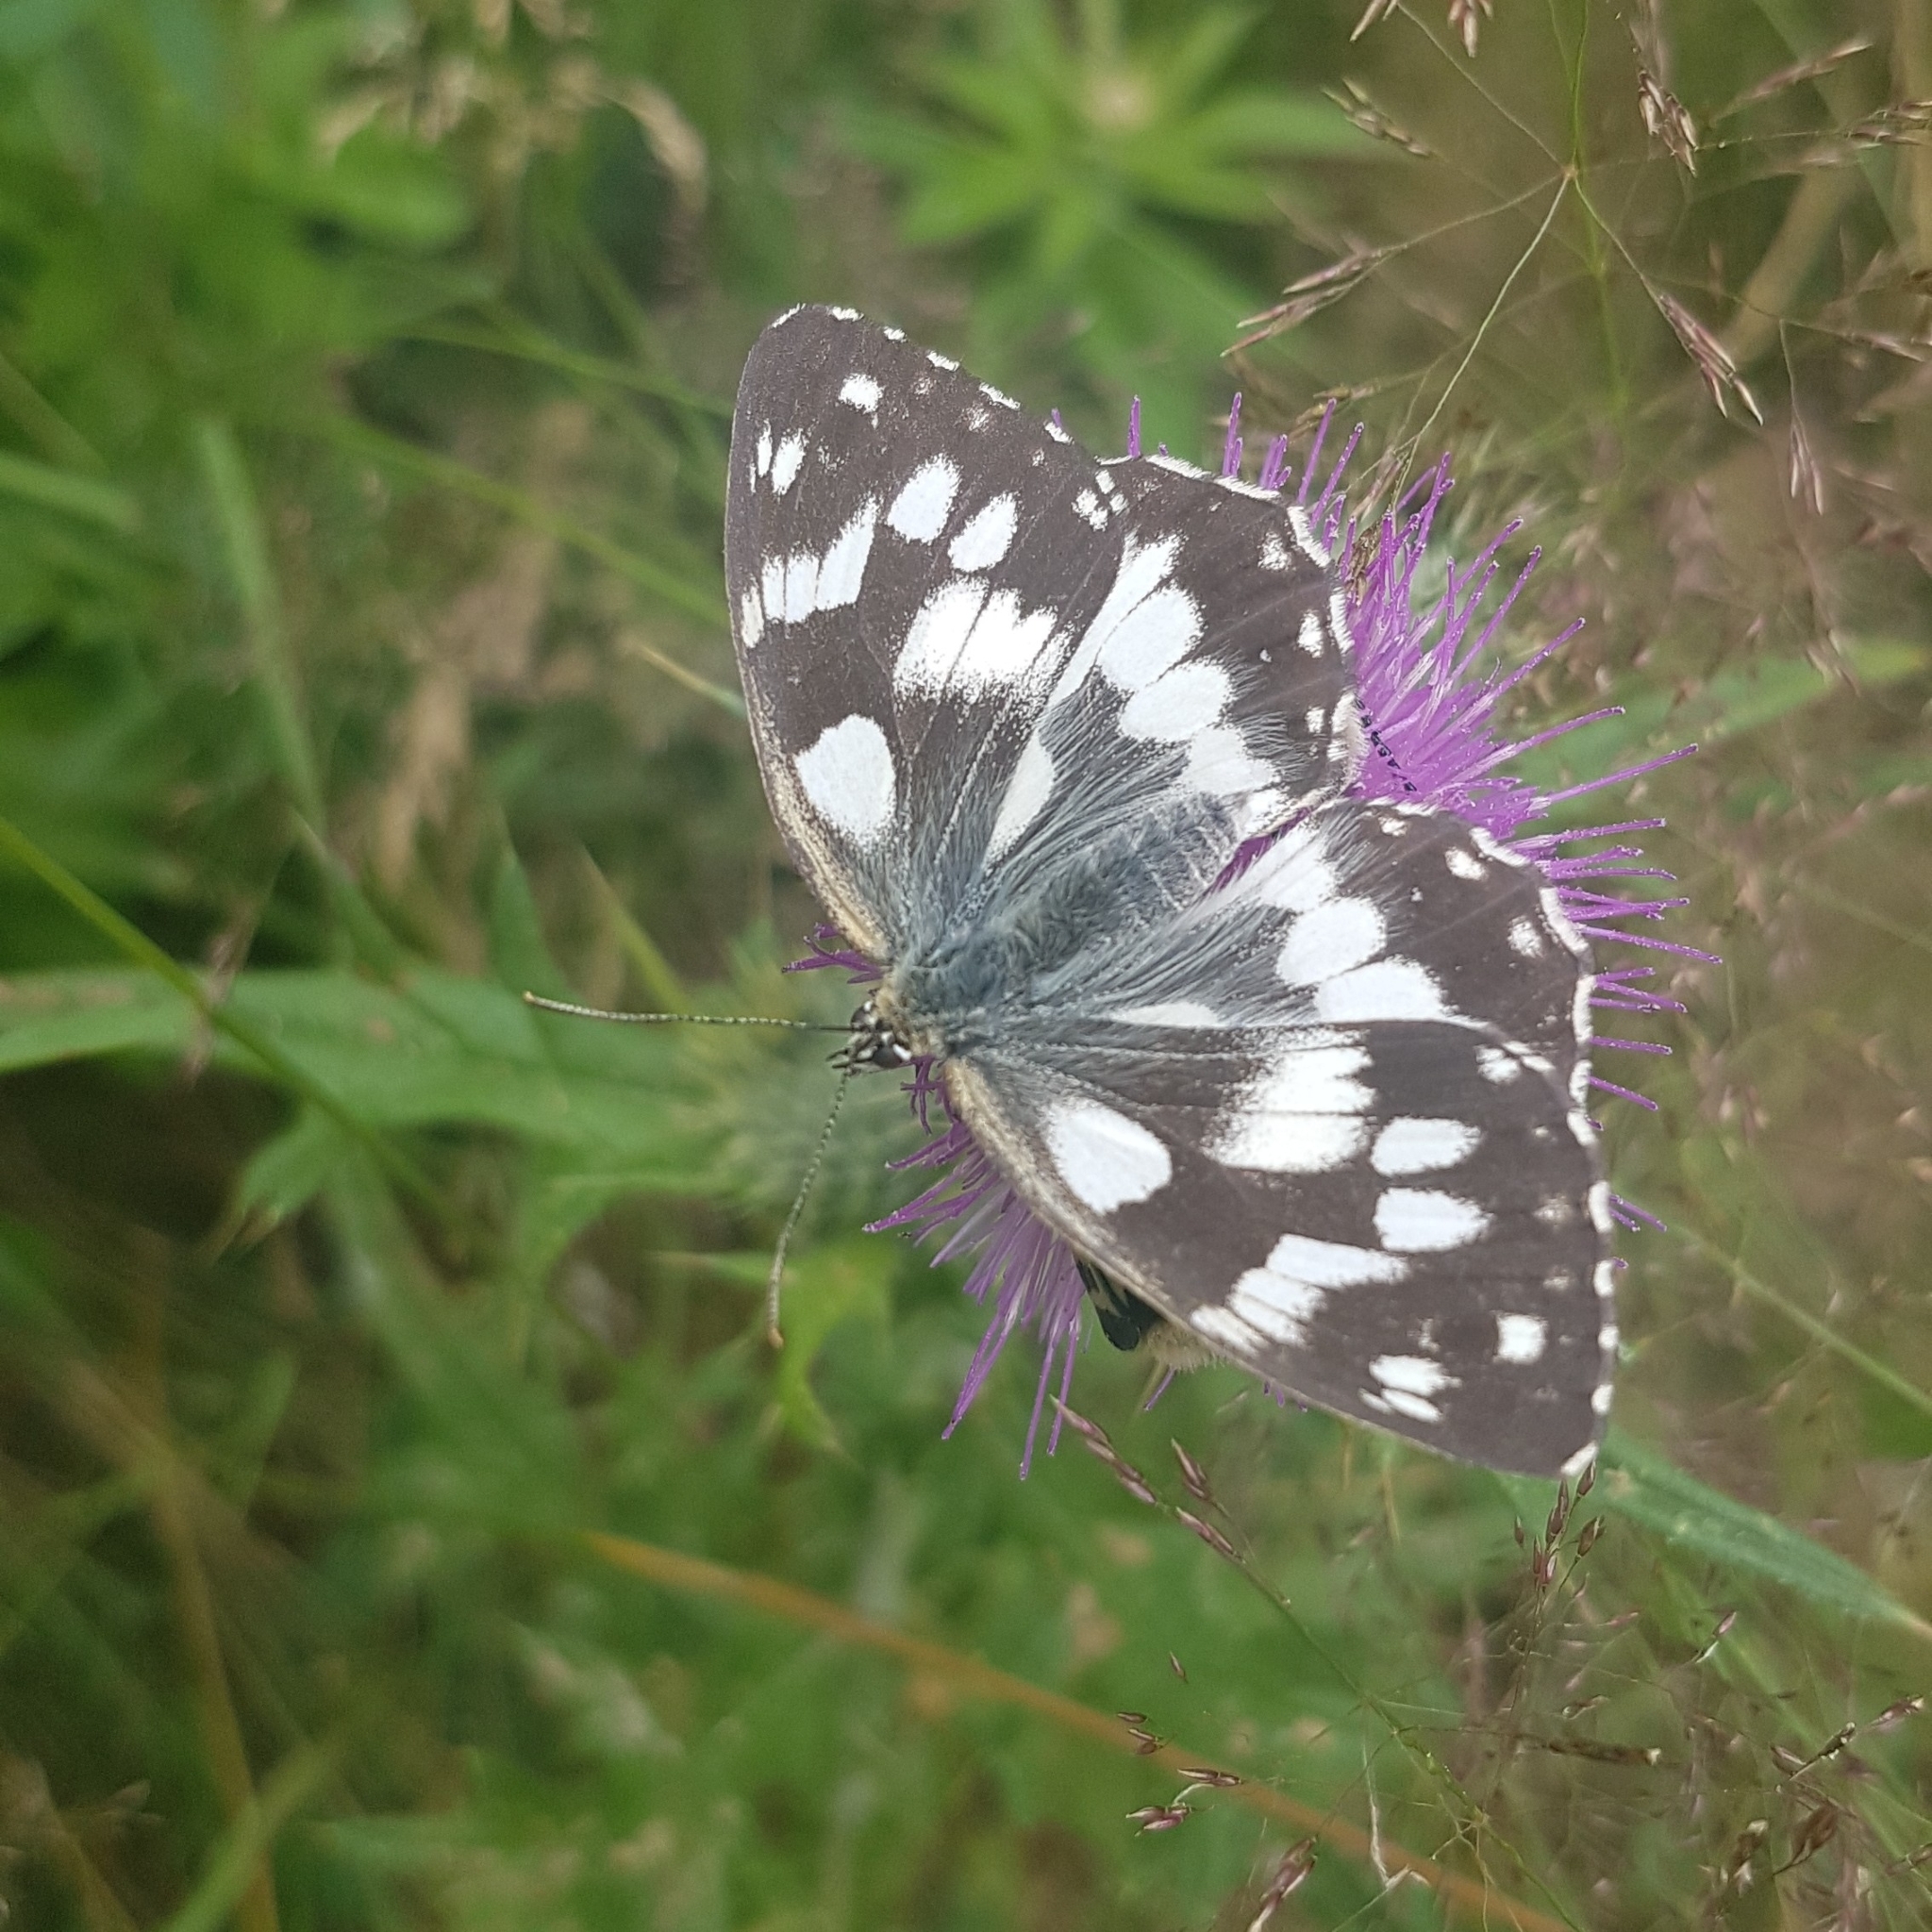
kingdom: Animalia
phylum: Arthropoda
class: Insecta
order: Lepidoptera
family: Nymphalidae
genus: Melanargia
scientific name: Melanargia galathea
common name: Marbled white
